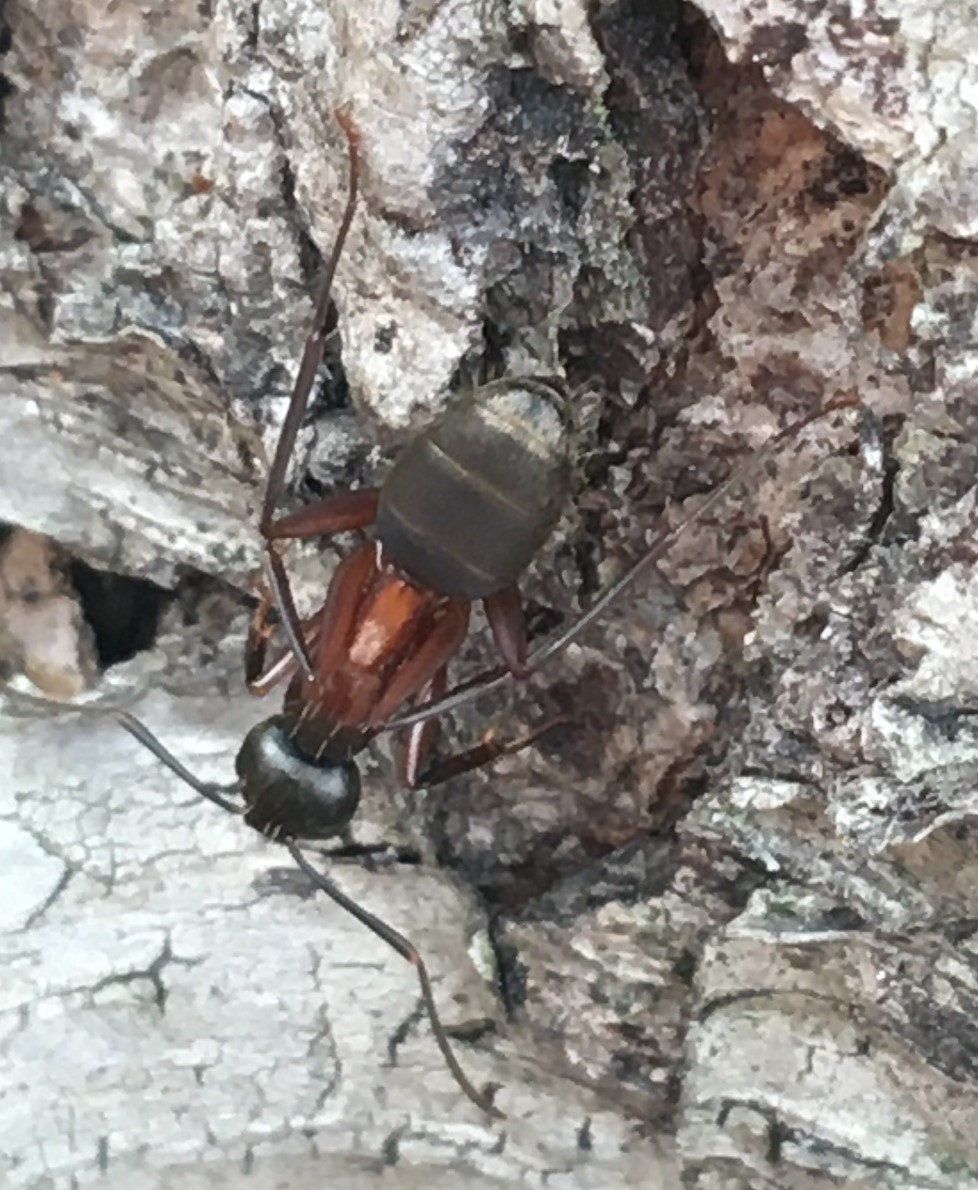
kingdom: Animalia
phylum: Arthropoda
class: Insecta
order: Hymenoptera
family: Formicidae
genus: Camponotus
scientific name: Camponotus chromaiodes
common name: Red carpenter ant
